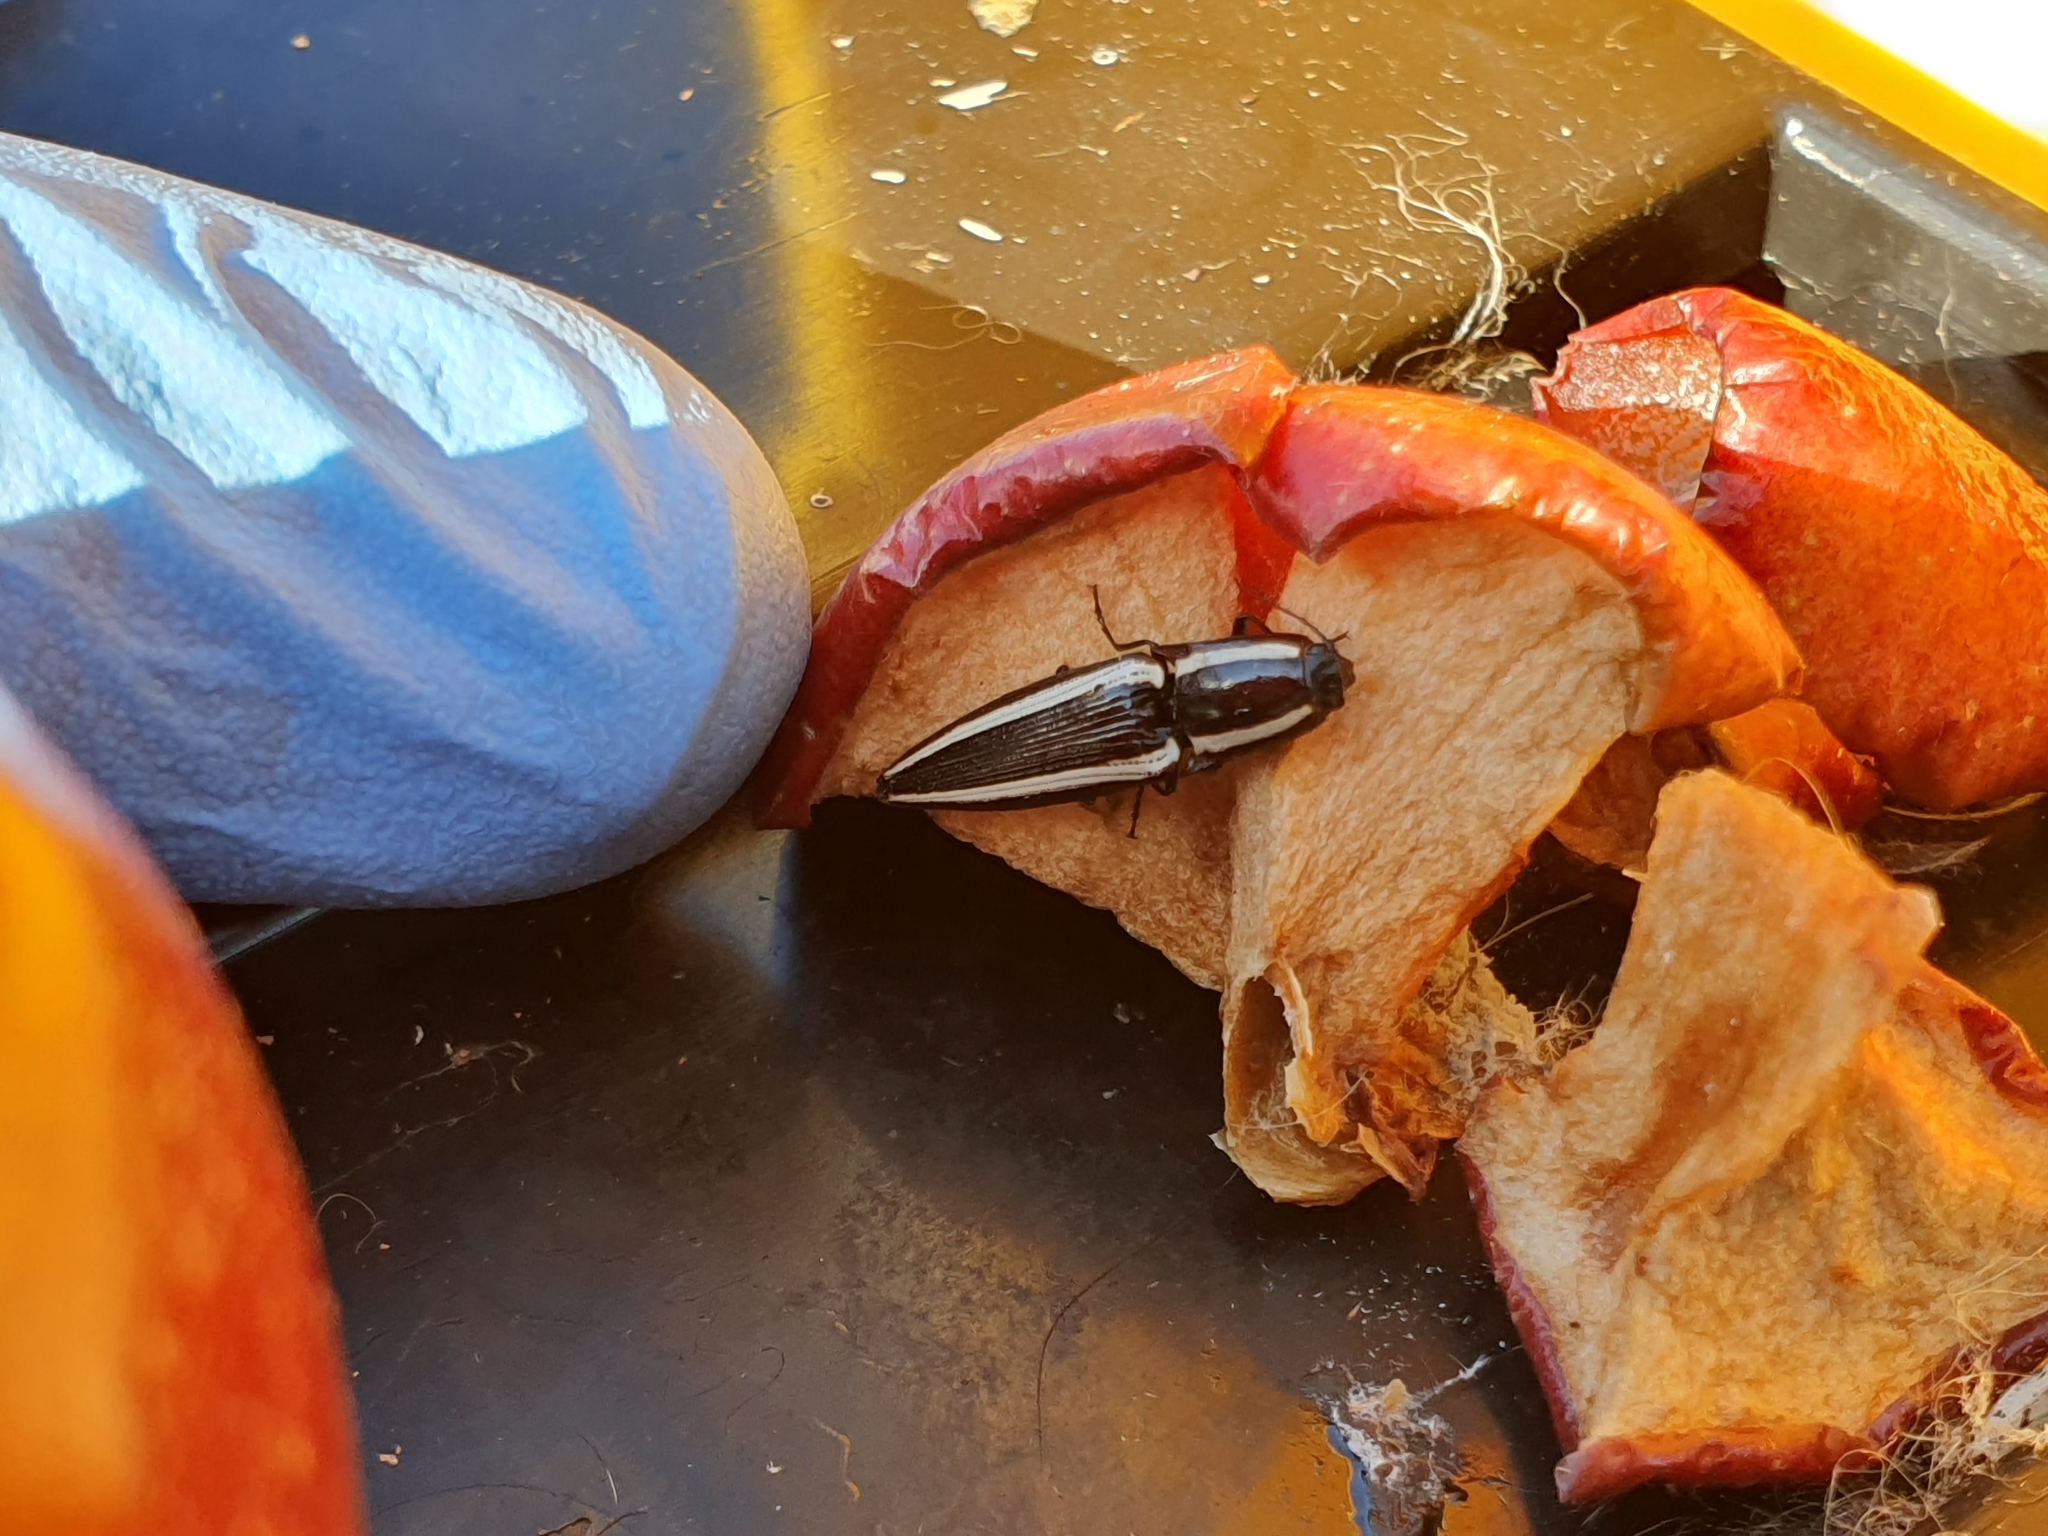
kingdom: Animalia
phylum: Arthropoda
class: Insecta
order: Coleoptera
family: Elateridae
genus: Metablax
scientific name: Metablax
